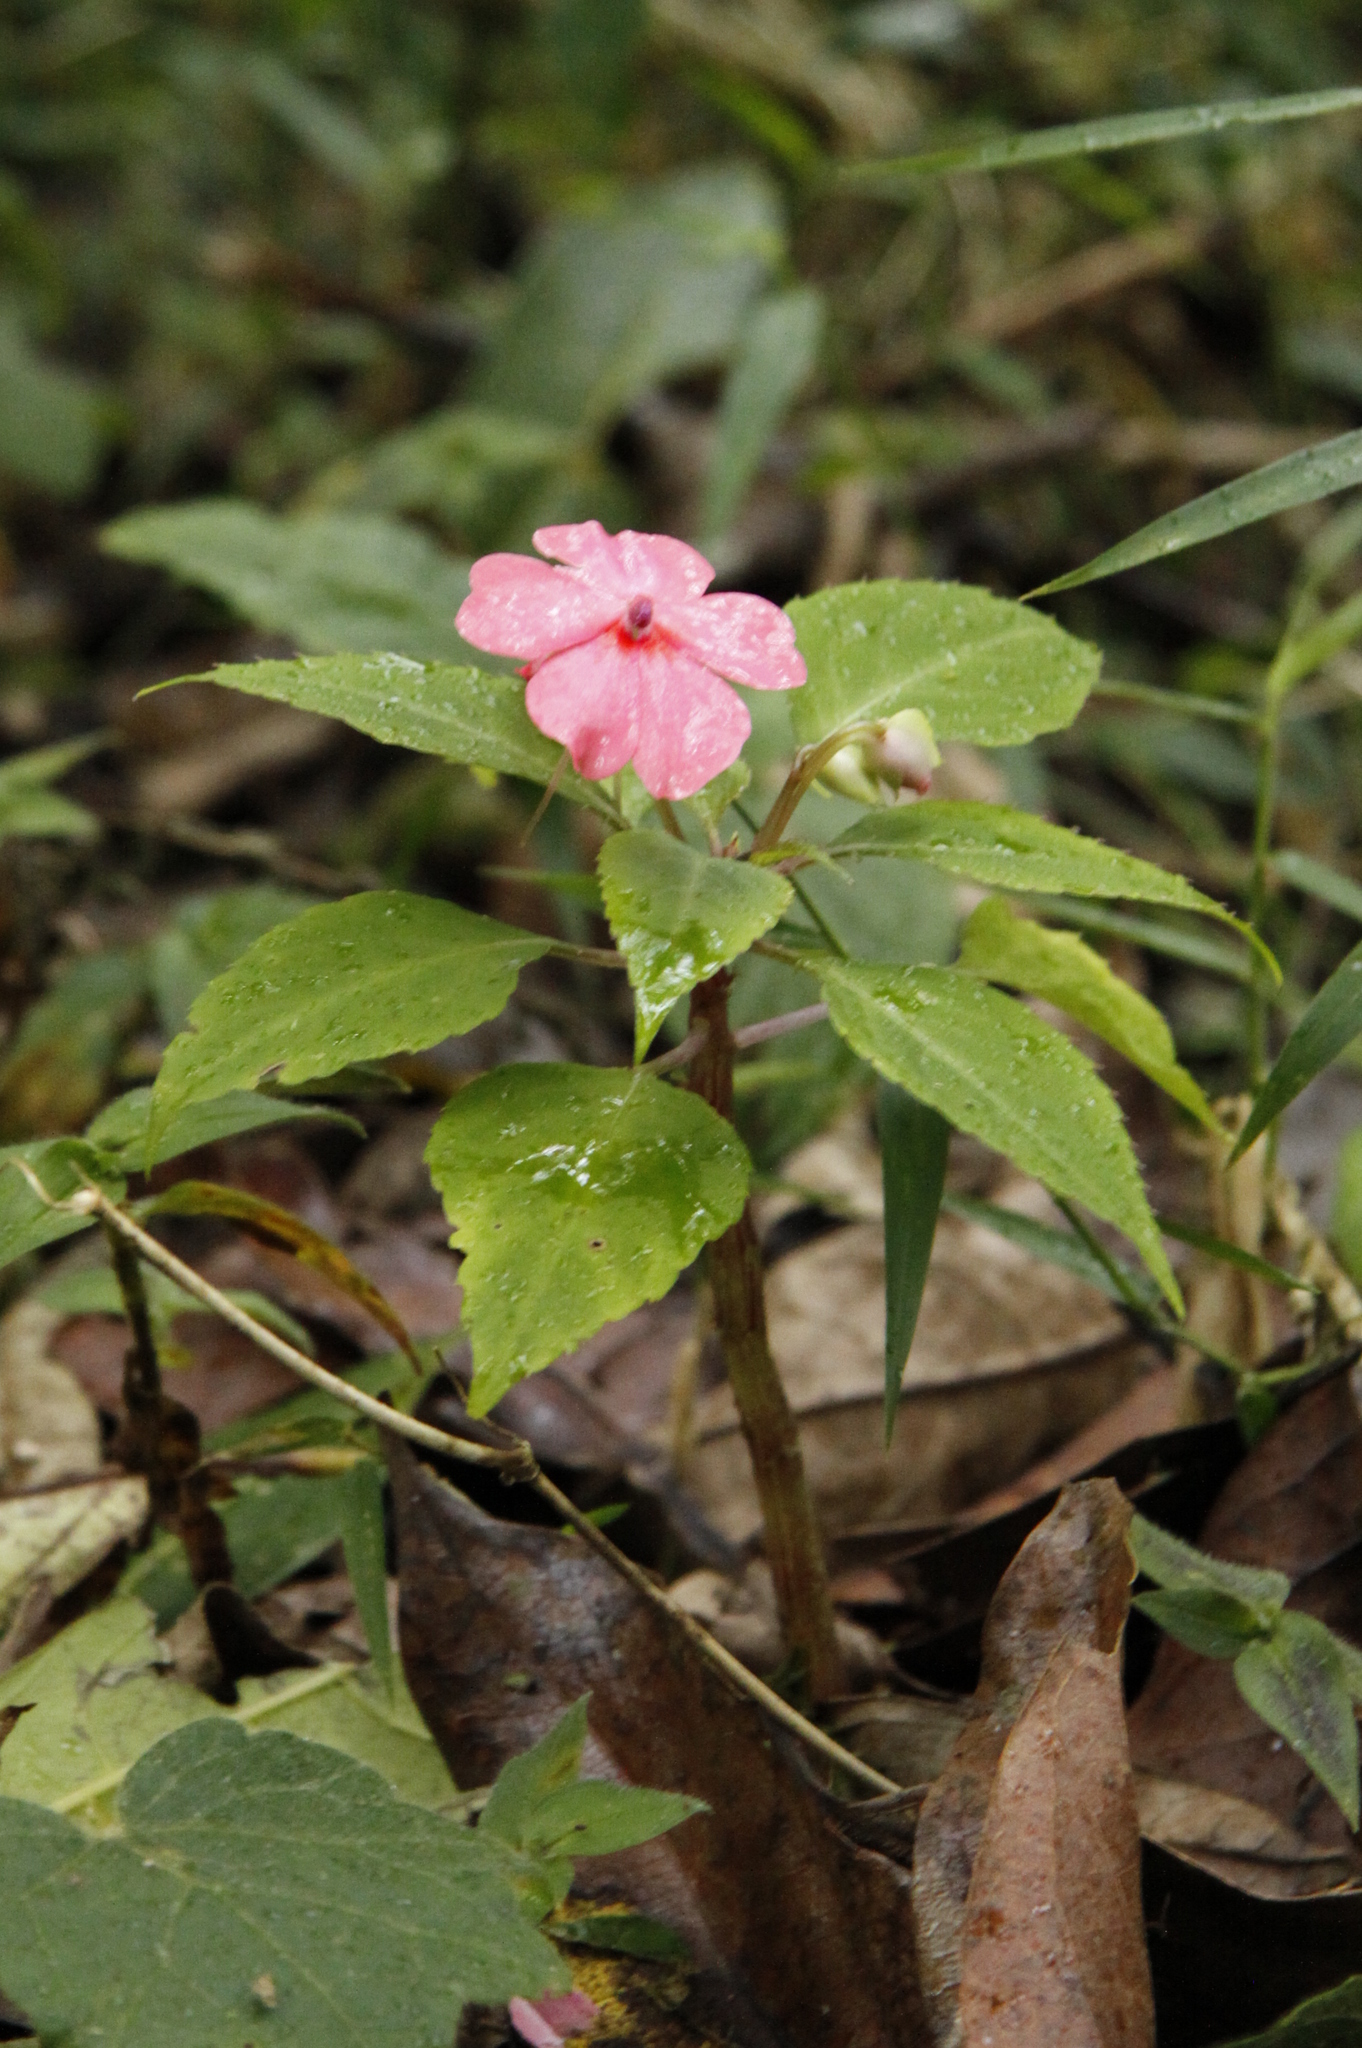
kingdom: Plantae
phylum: Tracheophyta
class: Magnoliopsida
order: Ericales
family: Balsaminaceae
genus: Impatiens
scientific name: Impatiens walleriana
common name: Buzzy lizzy
